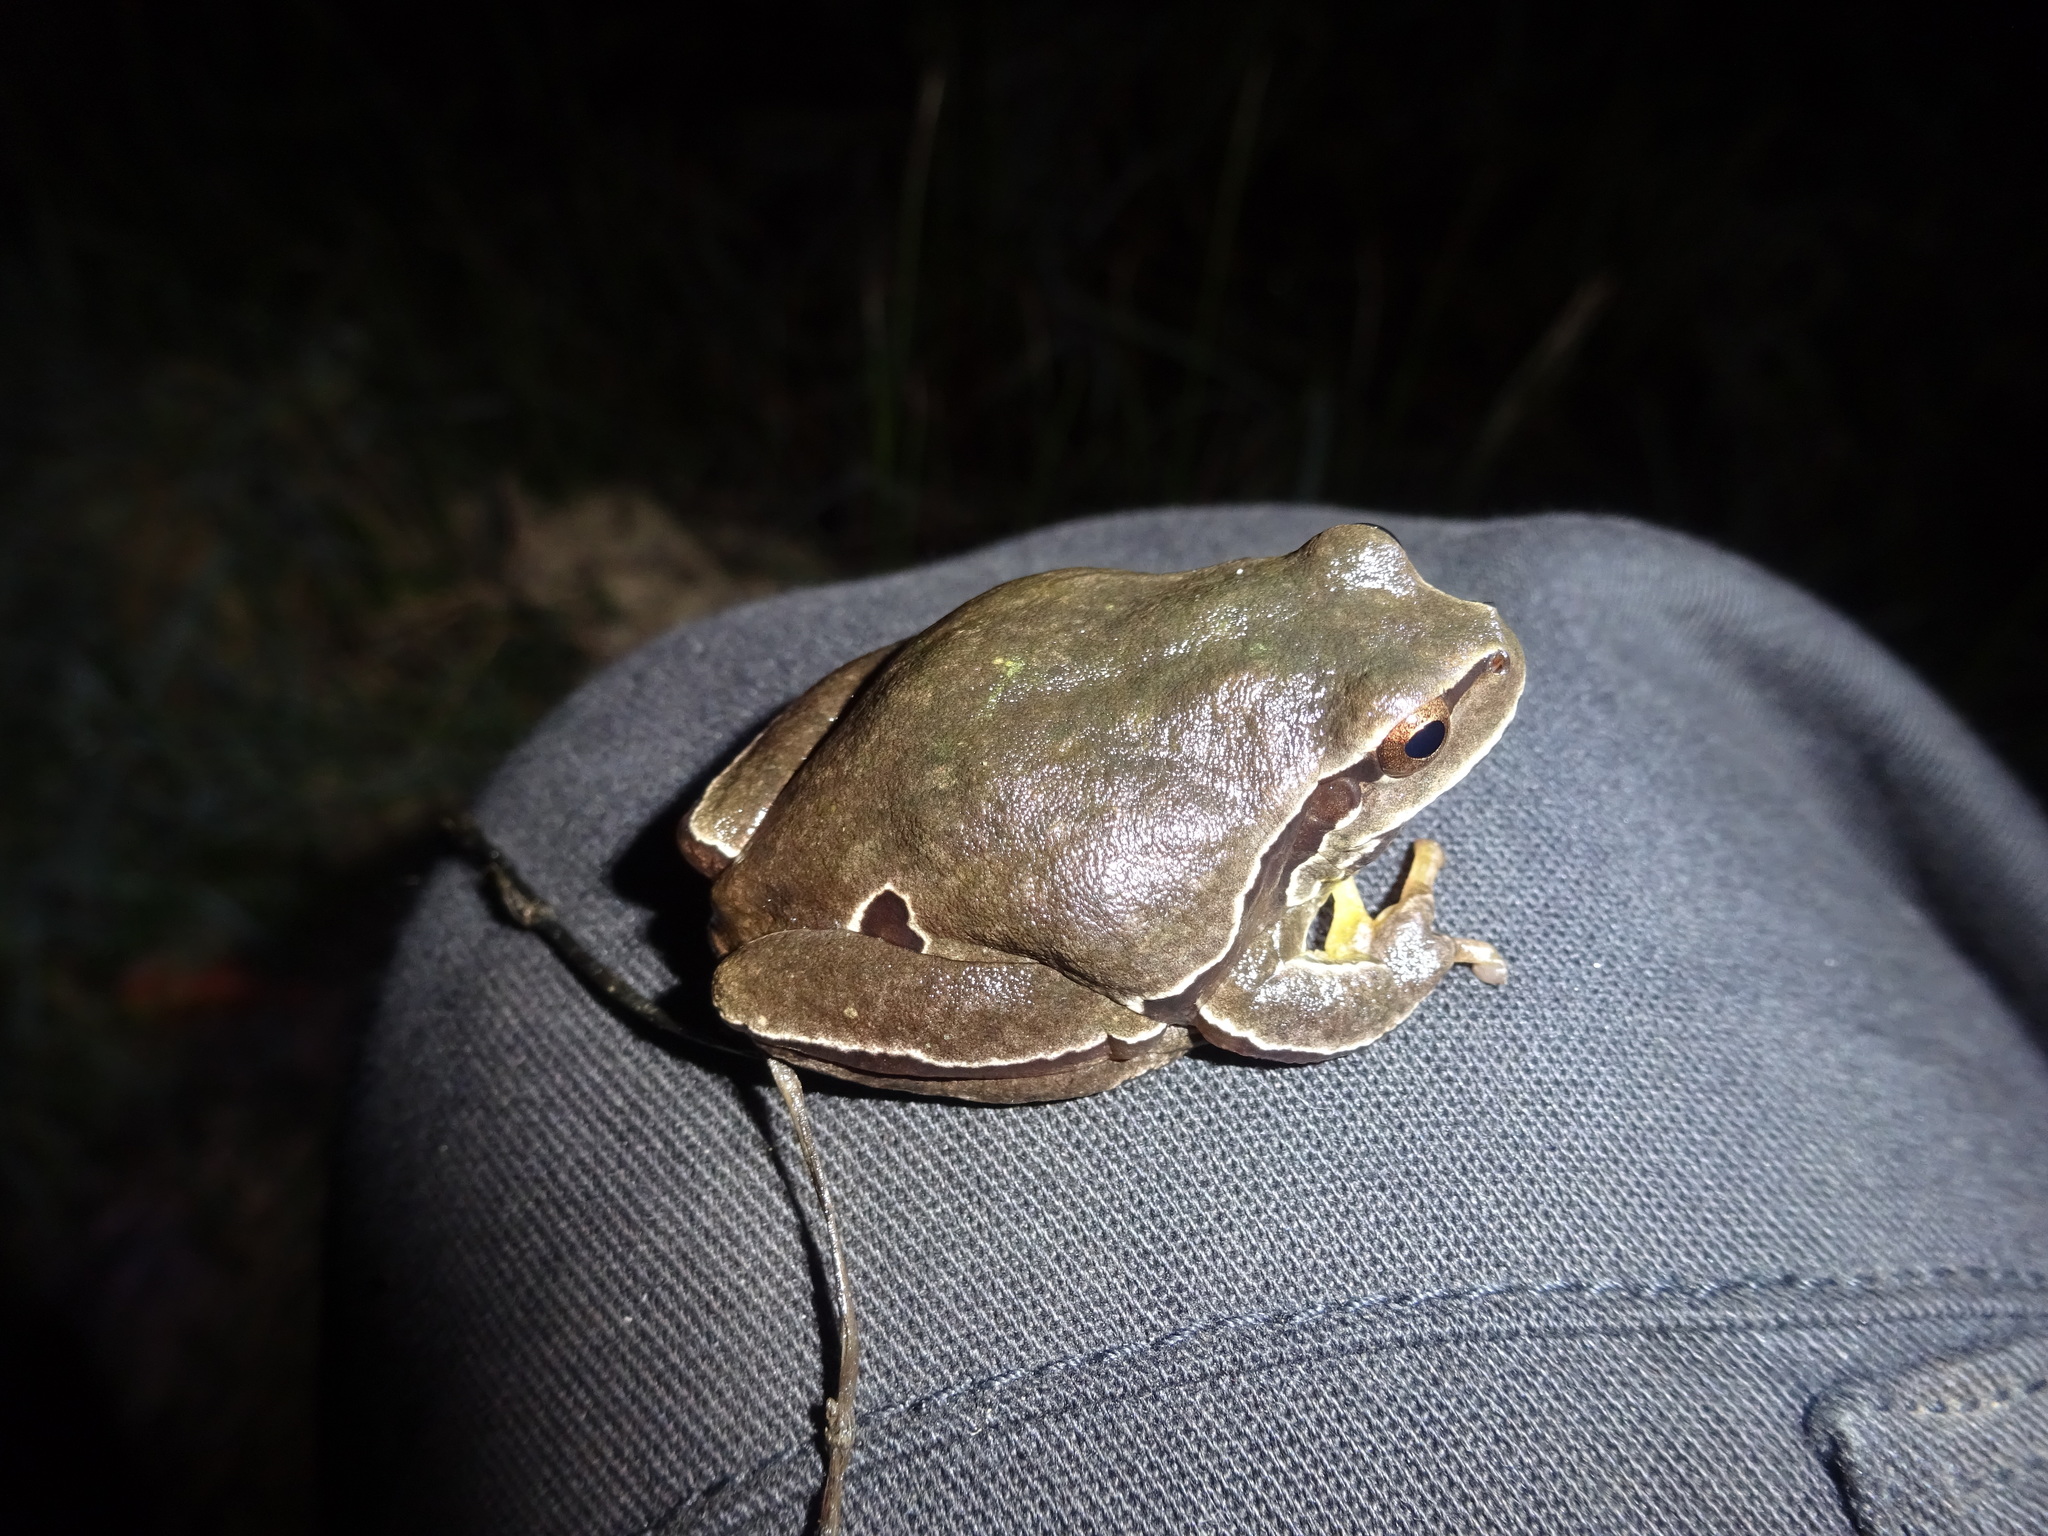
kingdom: Animalia
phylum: Chordata
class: Amphibia
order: Anura
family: Hylidae
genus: Hyla
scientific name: Hyla molleri
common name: Iberian tree frog
